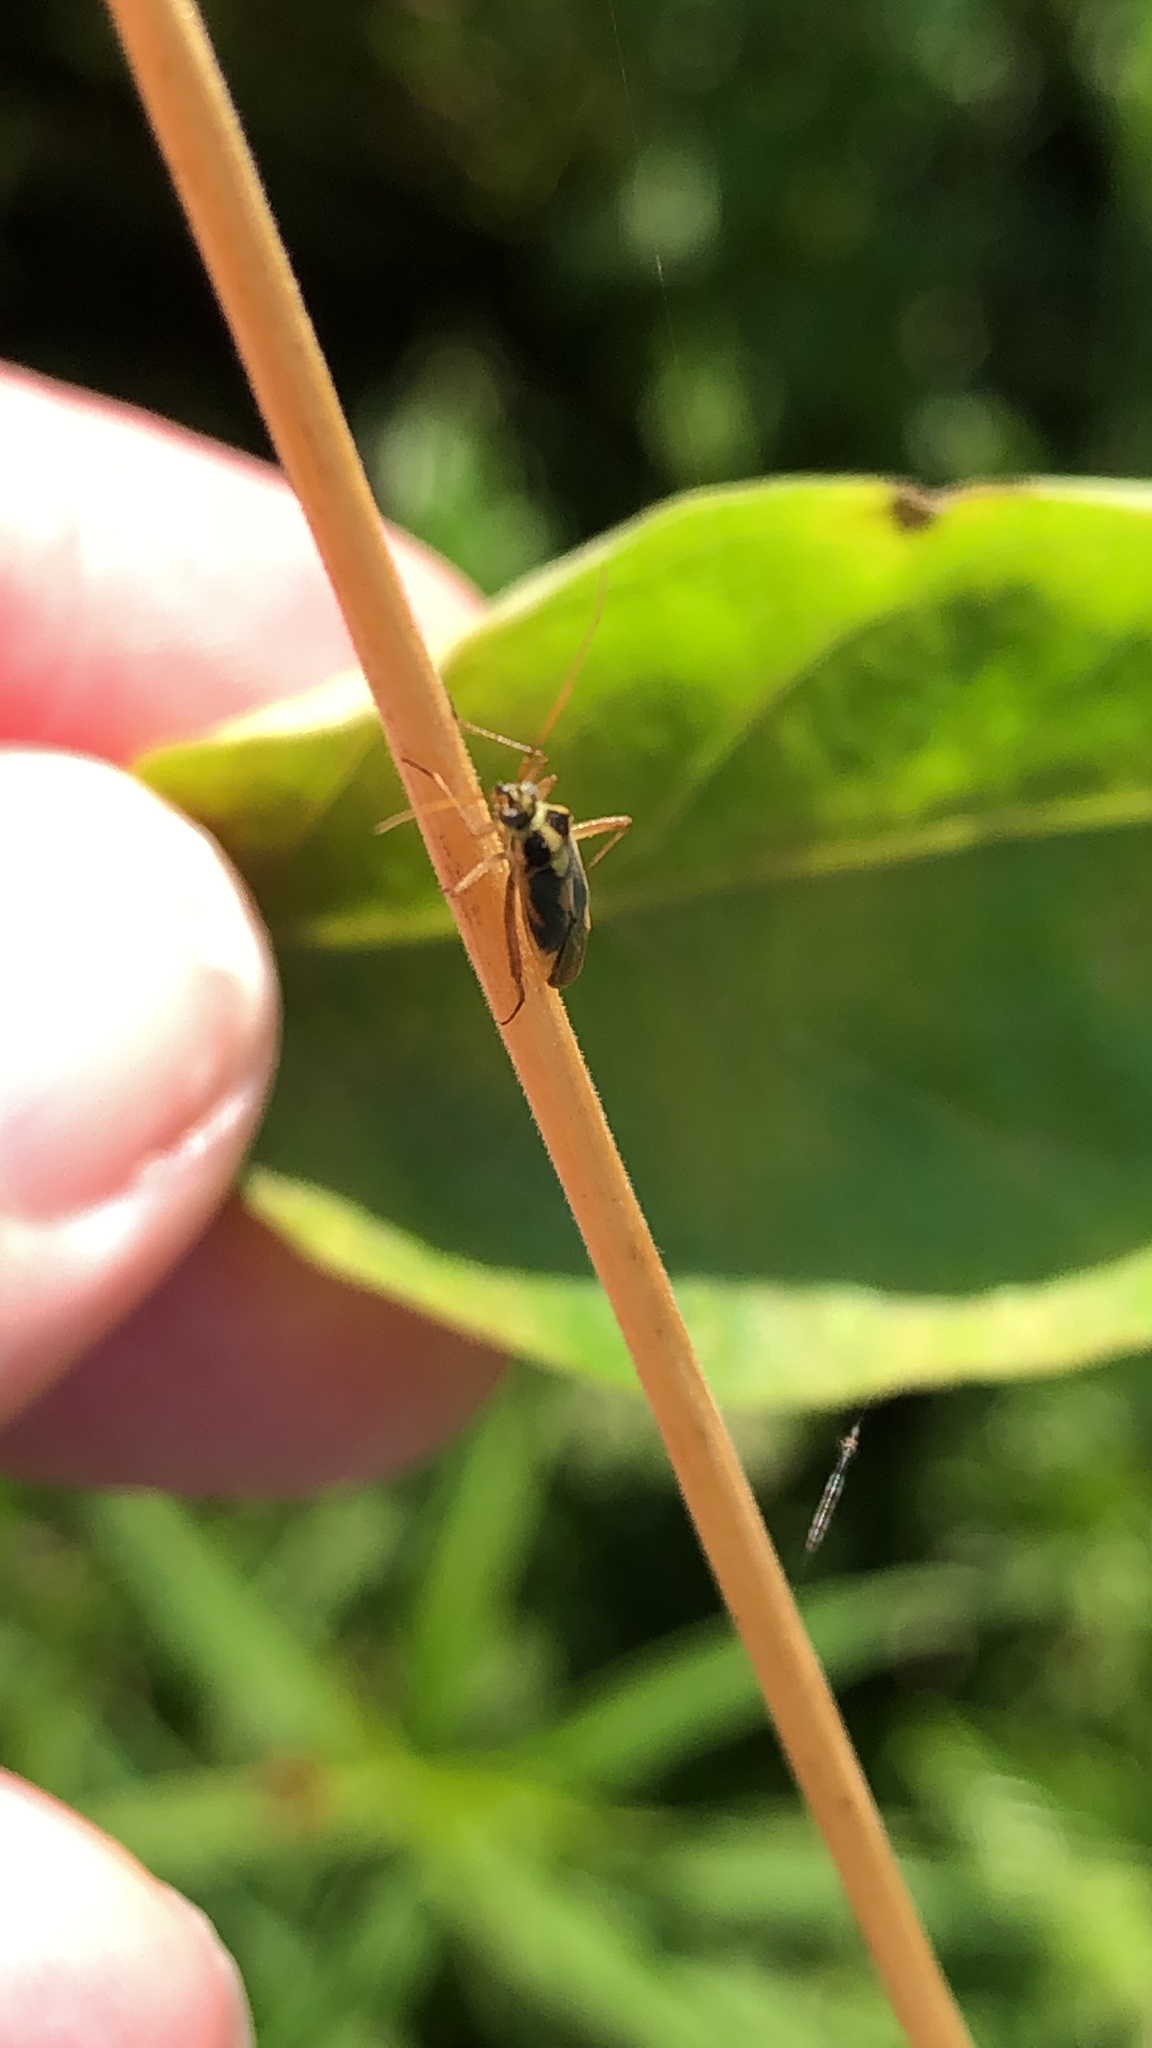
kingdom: Animalia
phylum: Arthropoda
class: Insecta
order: Hemiptera
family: Miridae
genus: Stenotus
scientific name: Stenotus binotatus
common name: Plant bug
